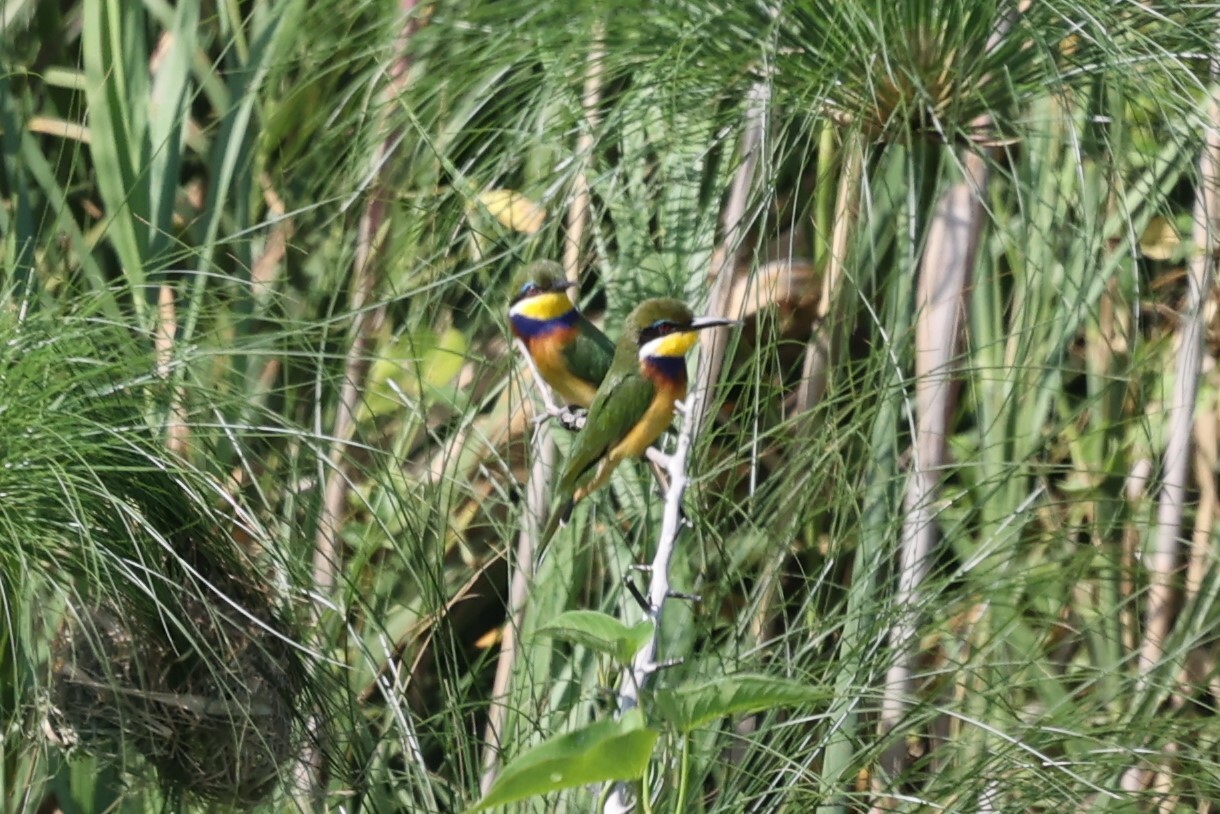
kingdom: Animalia
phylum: Chordata
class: Aves
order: Coraciiformes
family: Meropidae
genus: Merops
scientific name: Merops variegatus
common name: Blue-breasted bee-eater
